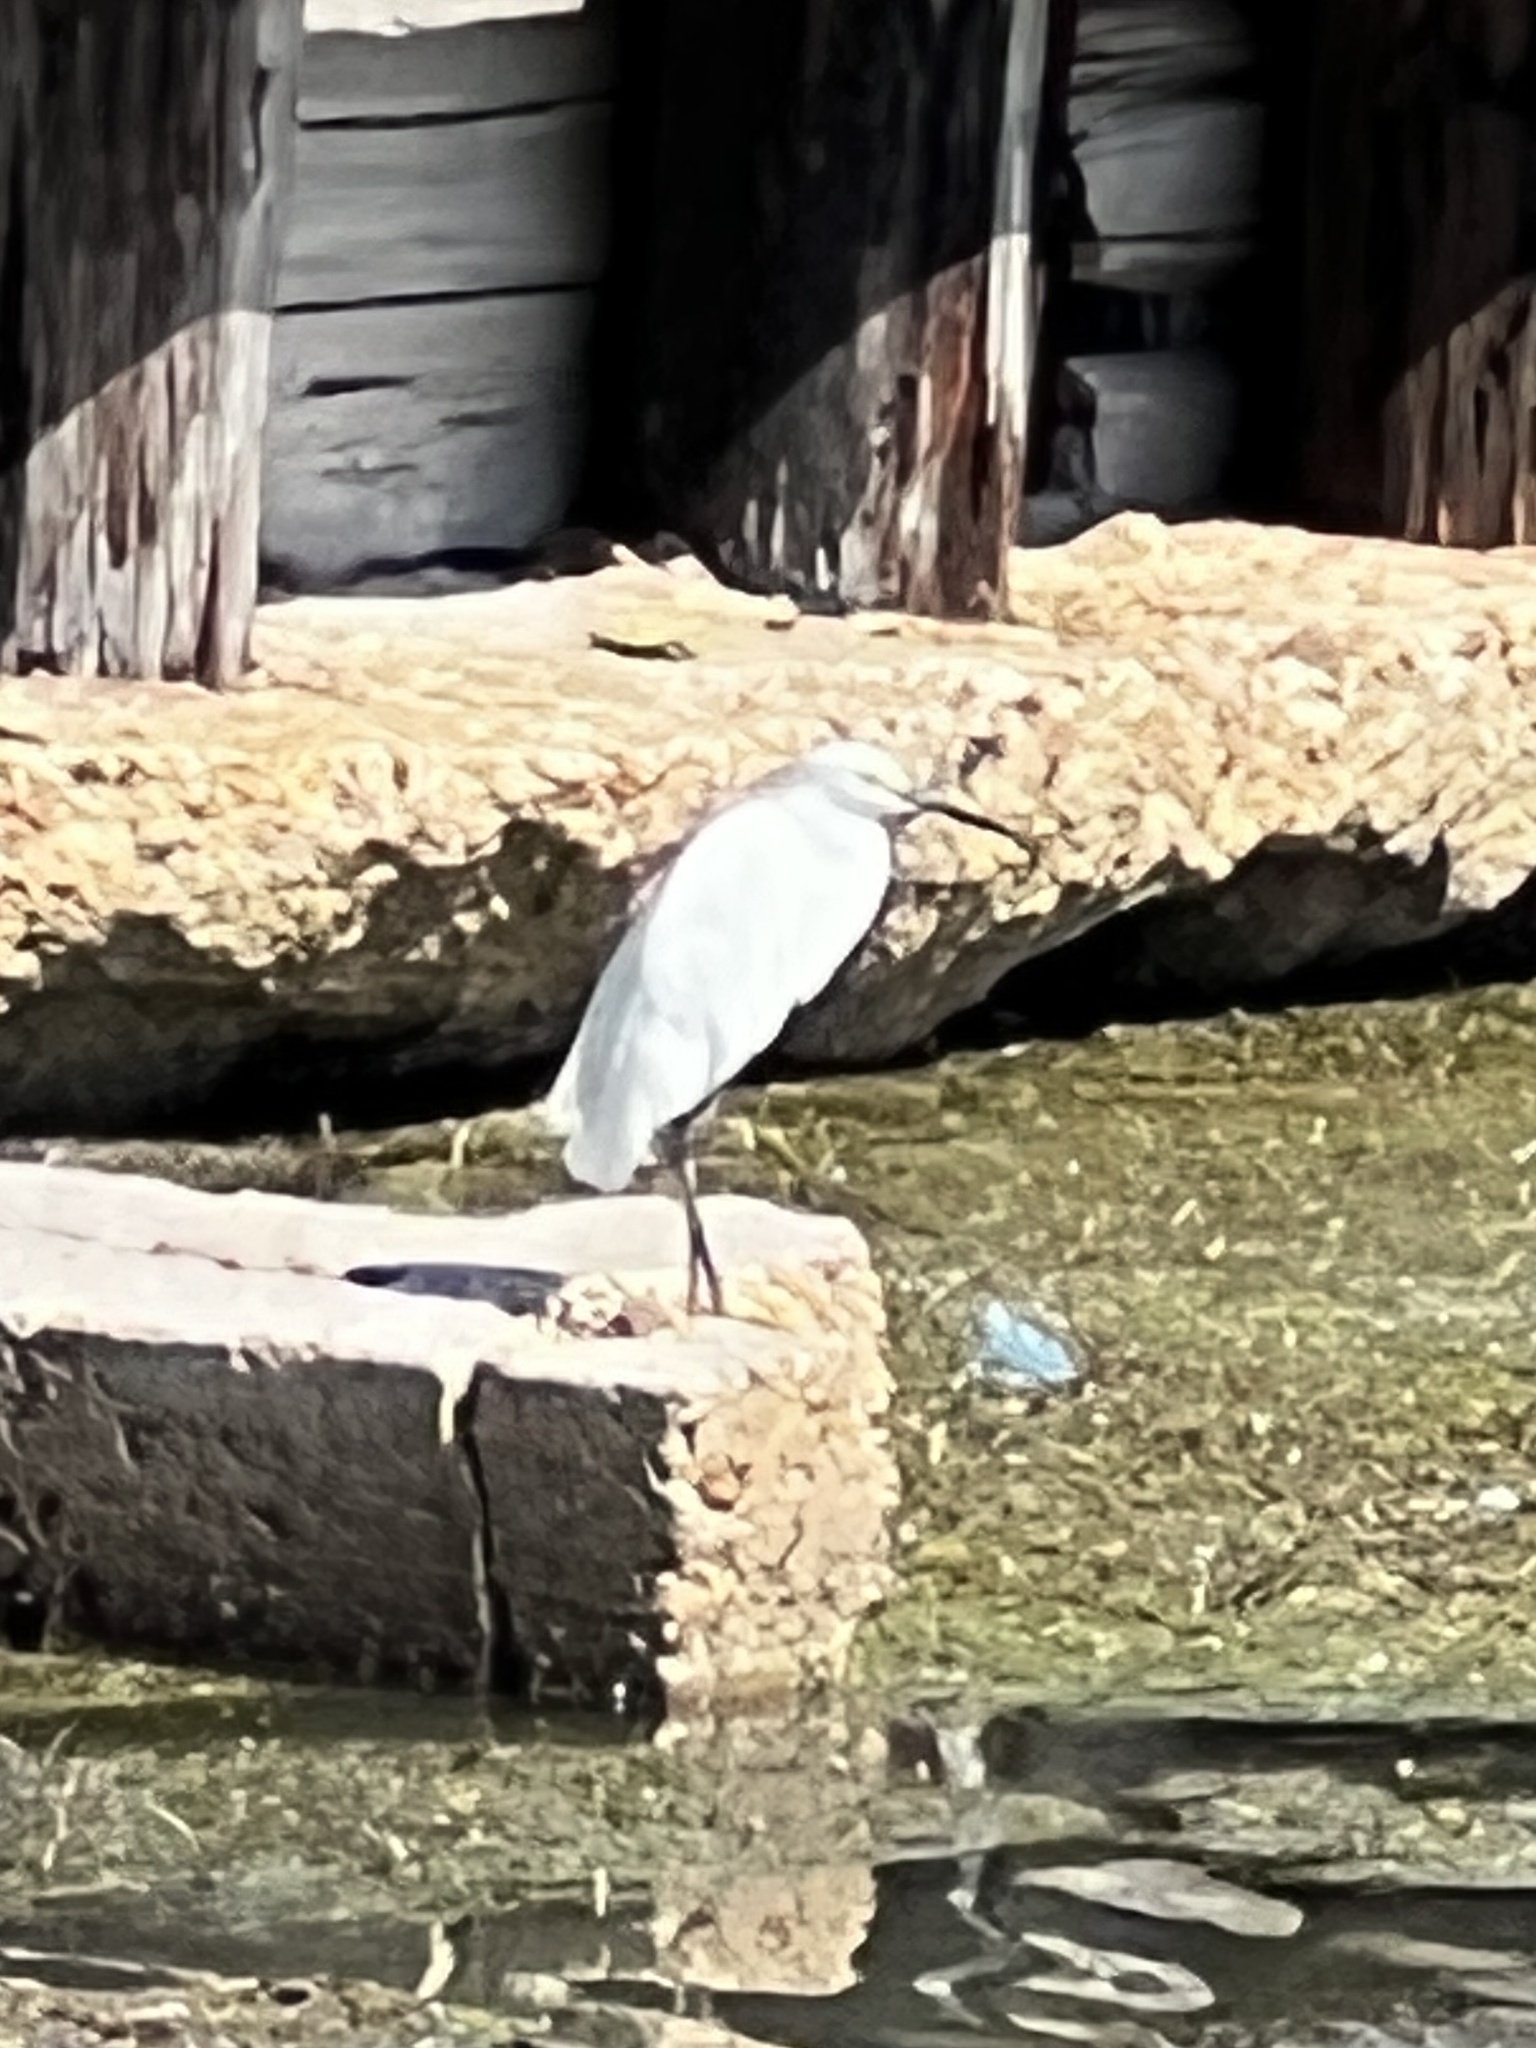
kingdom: Animalia
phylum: Chordata
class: Aves
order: Pelecaniformes
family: Ardeidae
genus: Egretta
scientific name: Egretta thula
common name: Snowy egret
